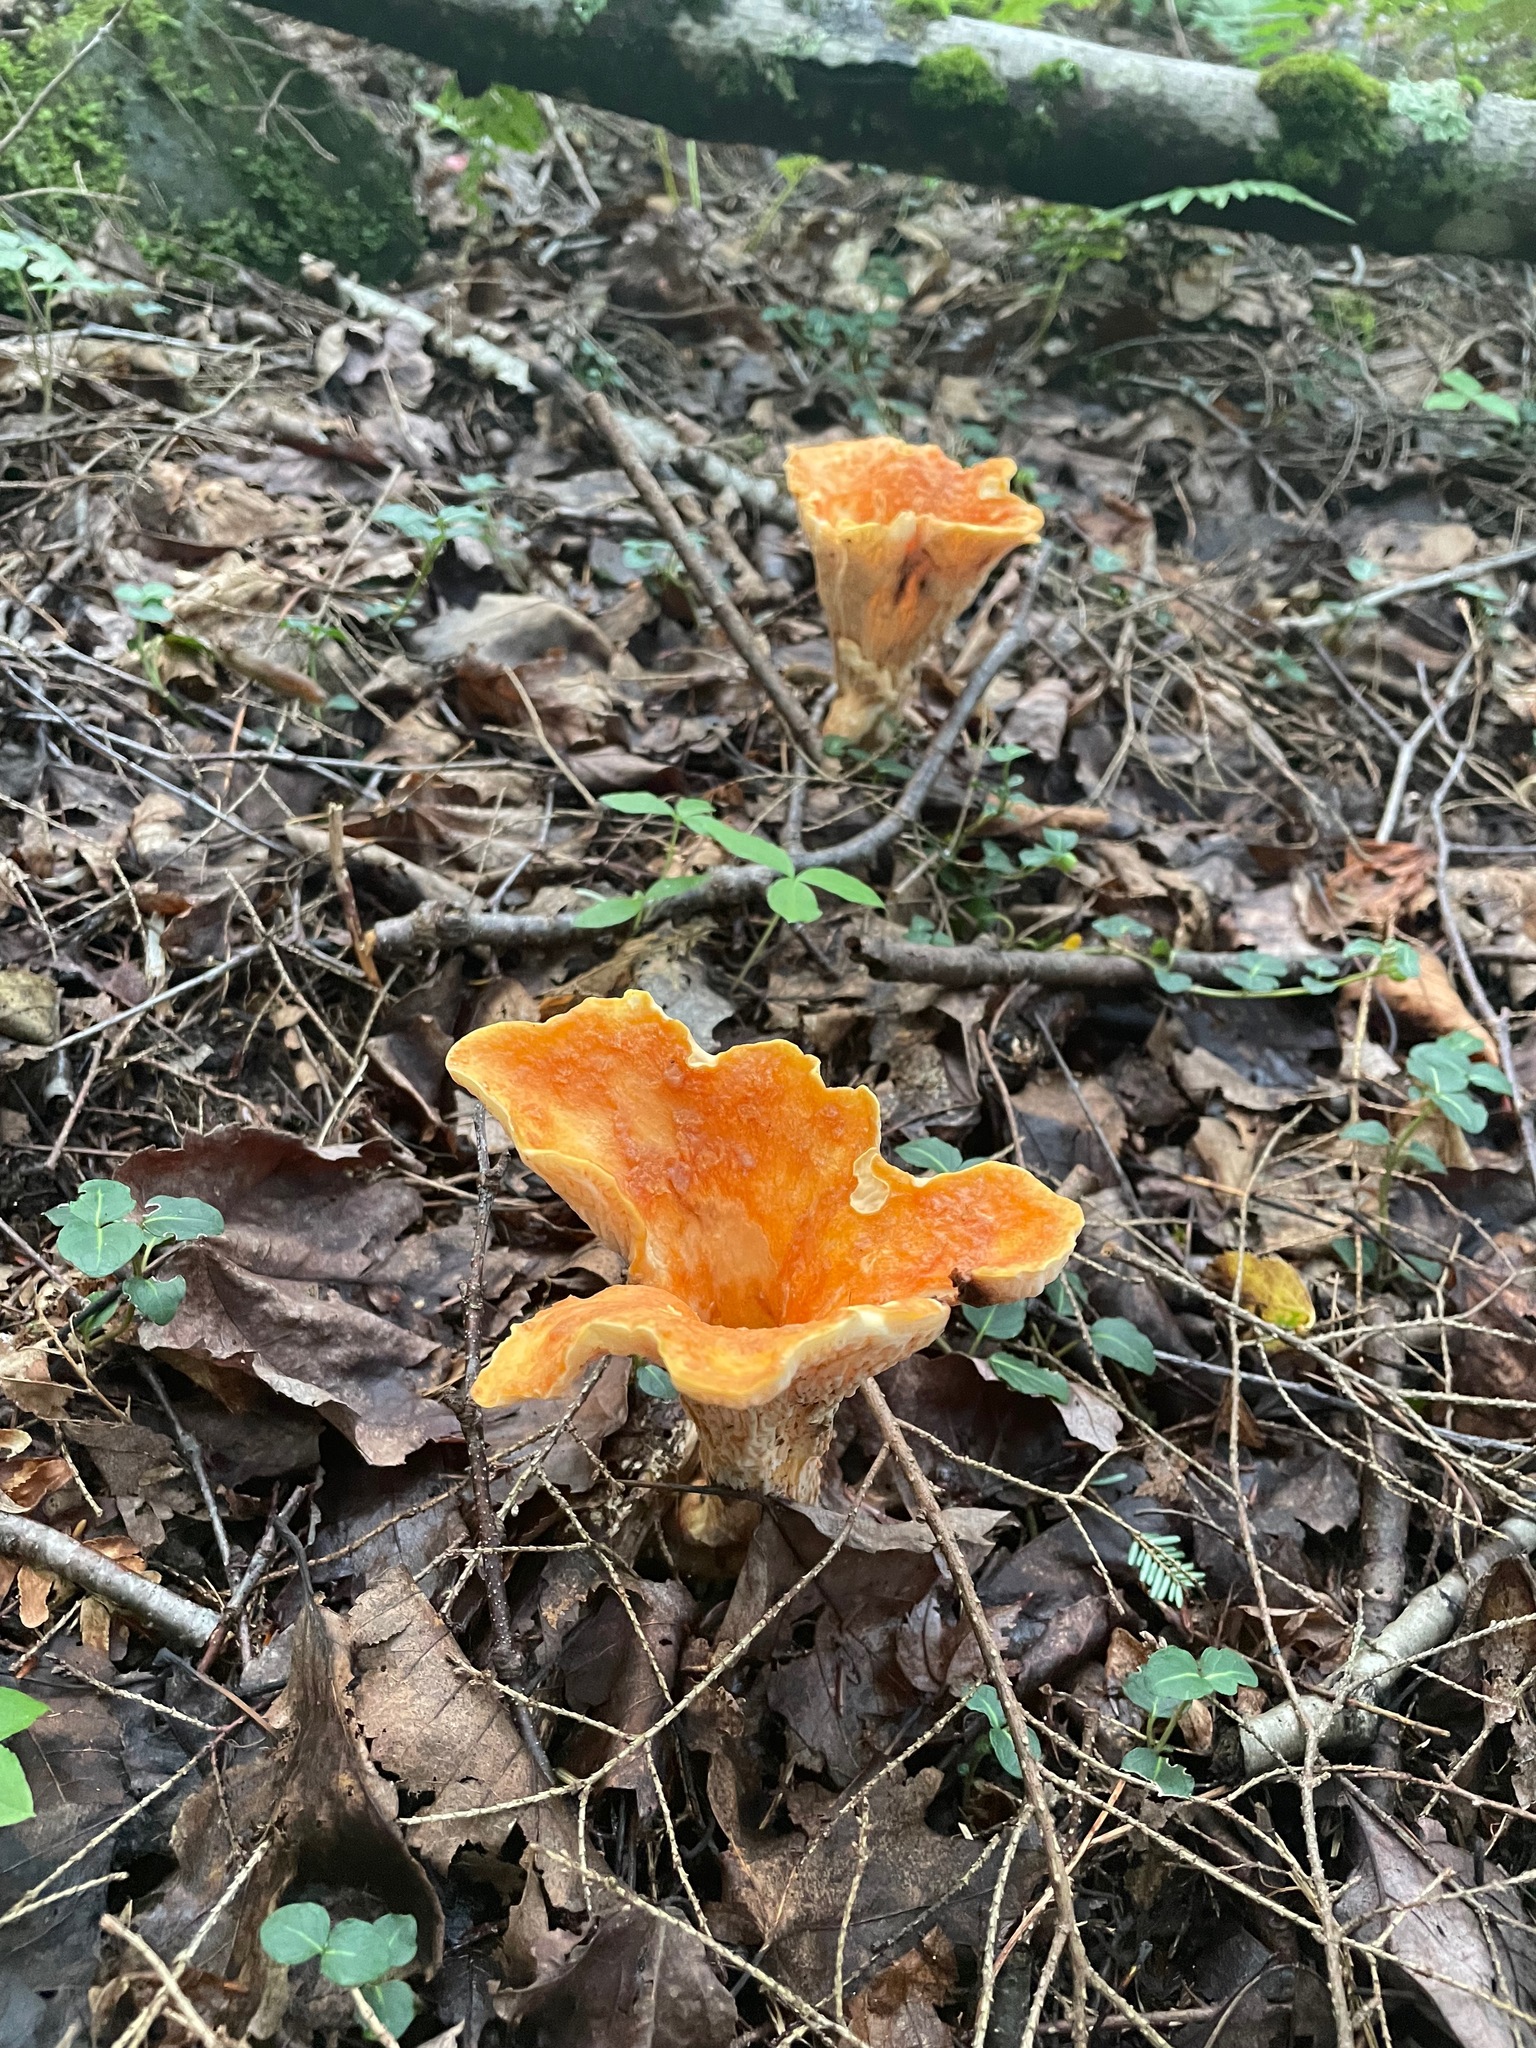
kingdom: Fungi
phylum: Basidiomycota
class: Agaricomycetes
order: Gomphales
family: Gomphaceae
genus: Turbinellus
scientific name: Turbinellus floccosus
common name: Scaly chanterelle
